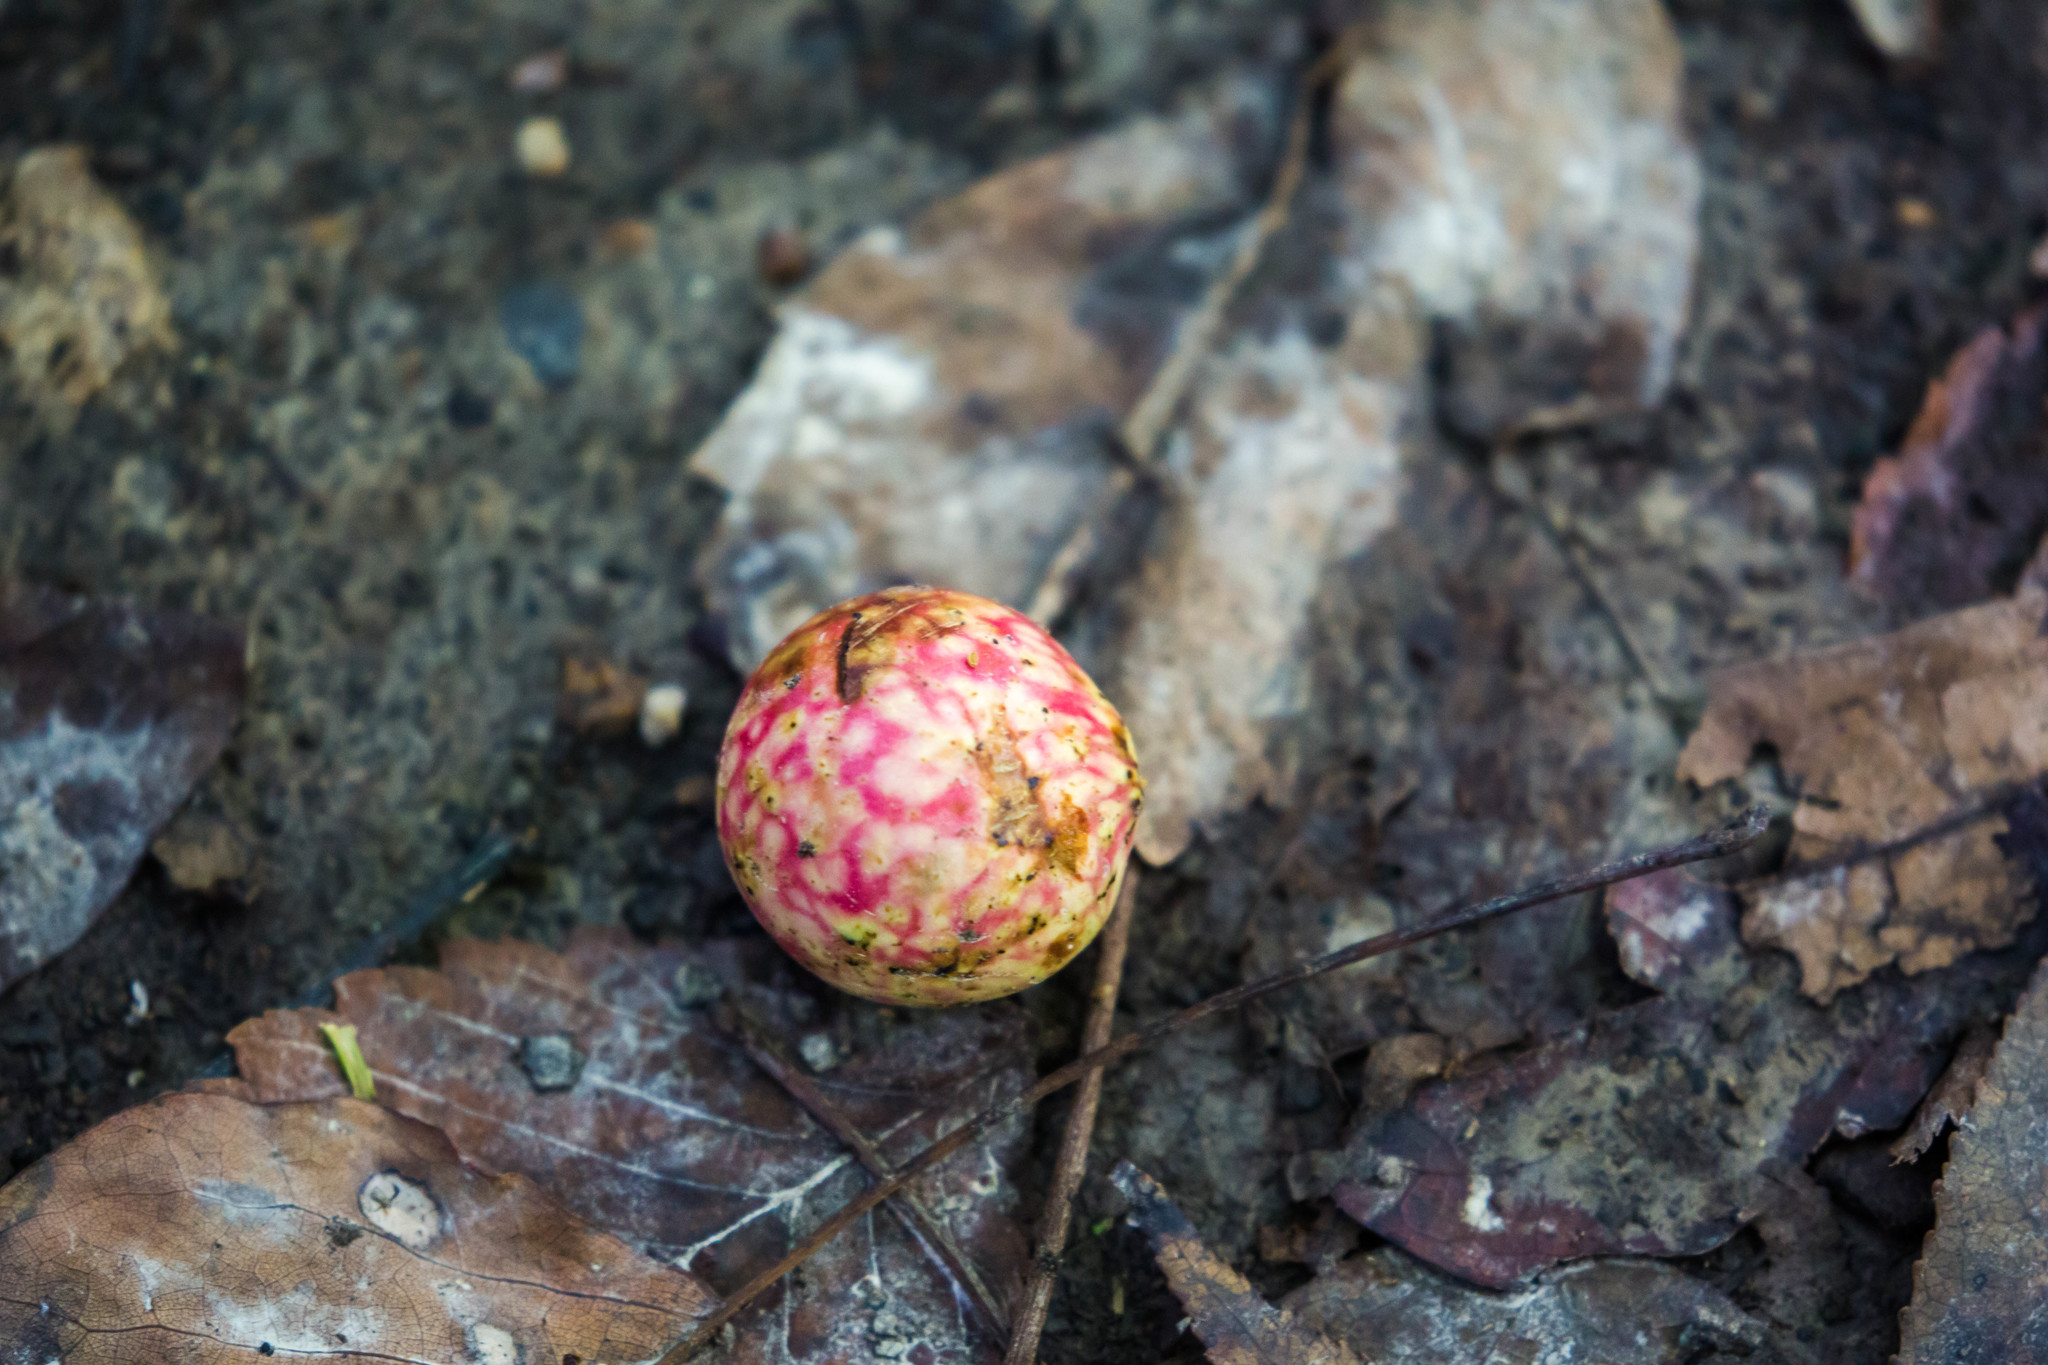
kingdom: Animalia
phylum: Arthropoda
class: Insecta
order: Hymenoptera
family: Cynipidae
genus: Amphibolips
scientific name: Amphibolips
